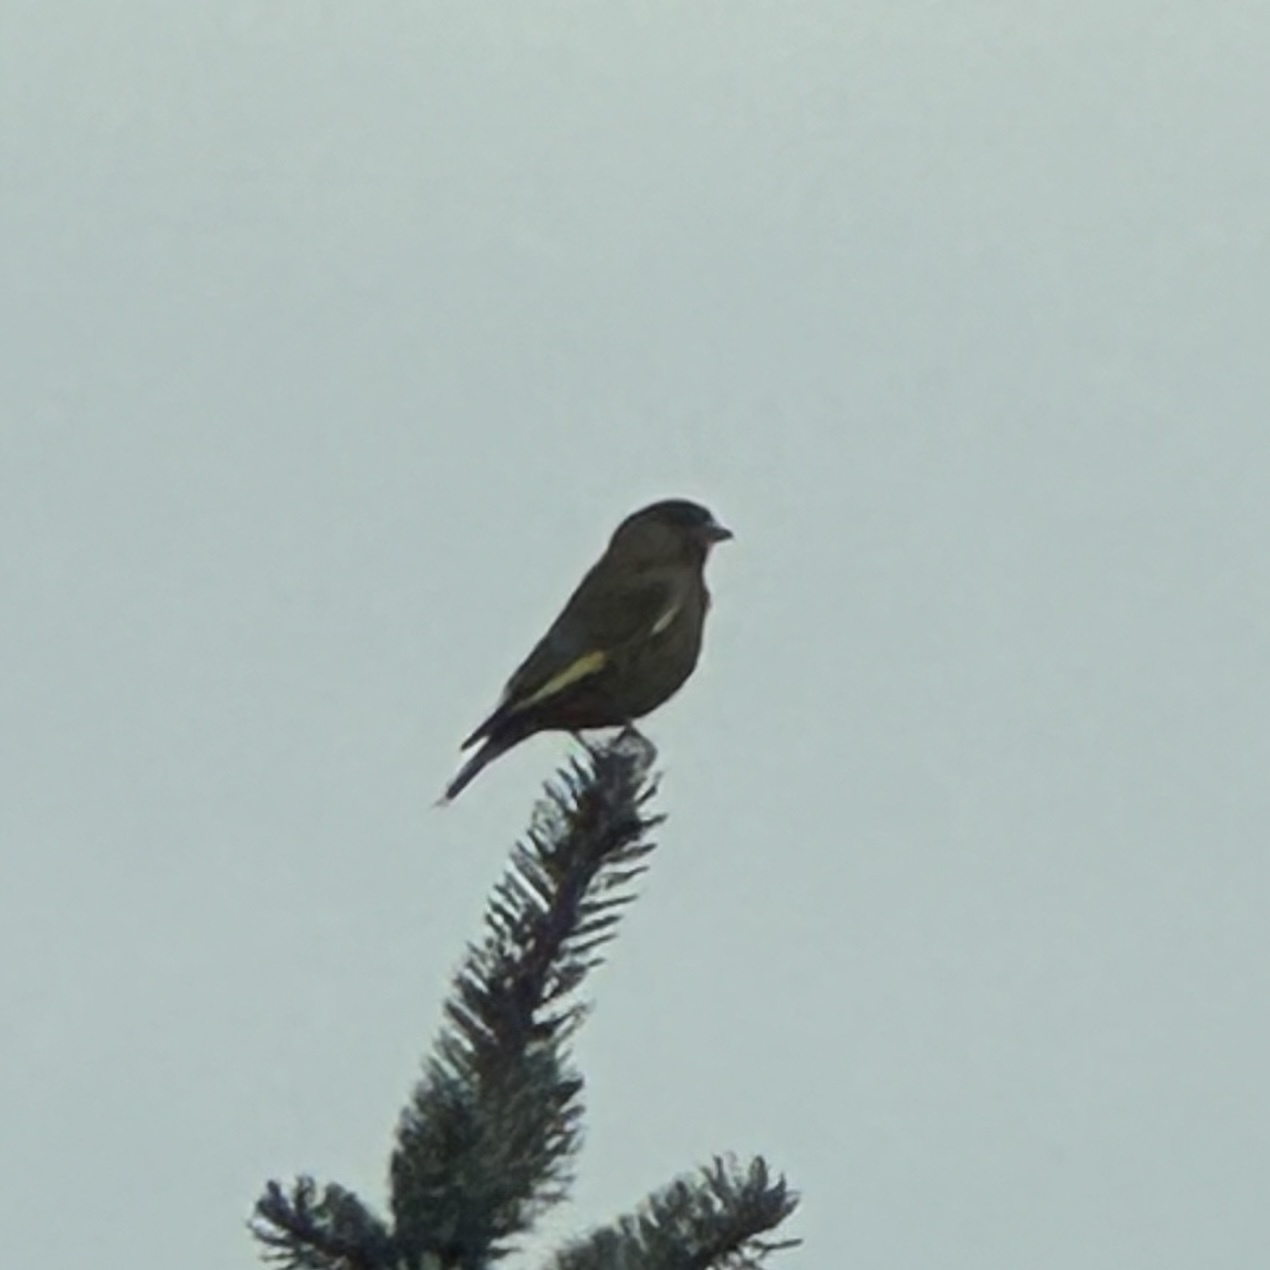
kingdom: Plantae
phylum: Tracheophyta
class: Liliopsida
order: Poales
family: Poaceae
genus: Chloris
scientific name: Chloris chloris
